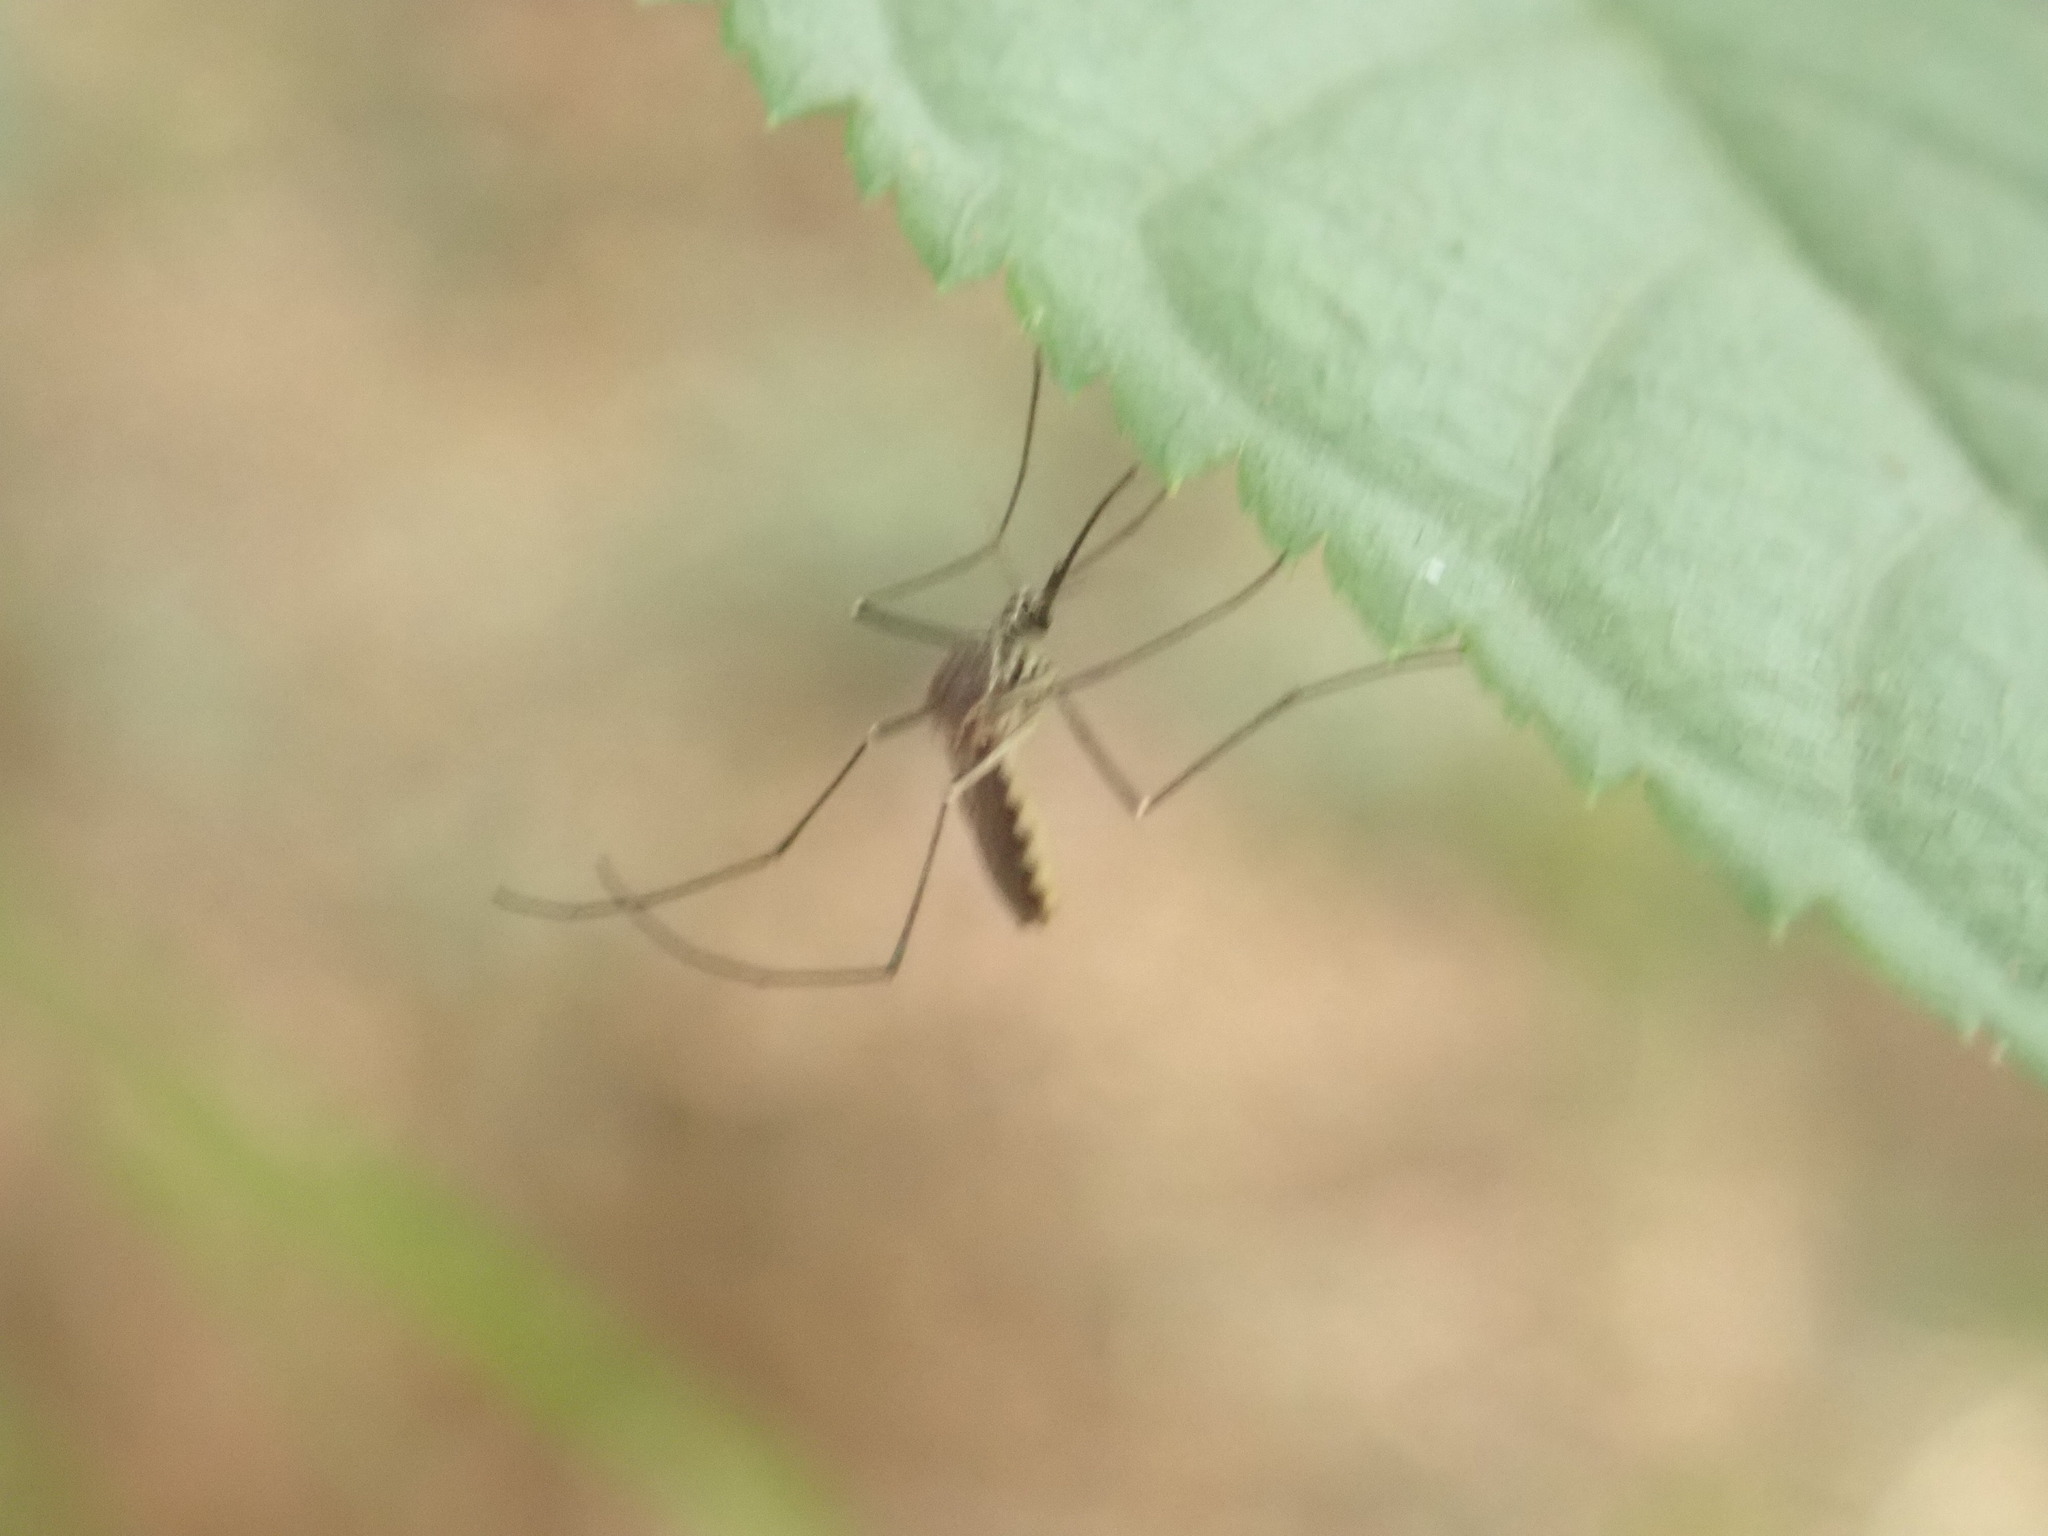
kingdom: Animalia
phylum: Arthropoda
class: Insecta
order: Diptera
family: Culicidae
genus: Armigeres
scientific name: Armigeres subalbatus
